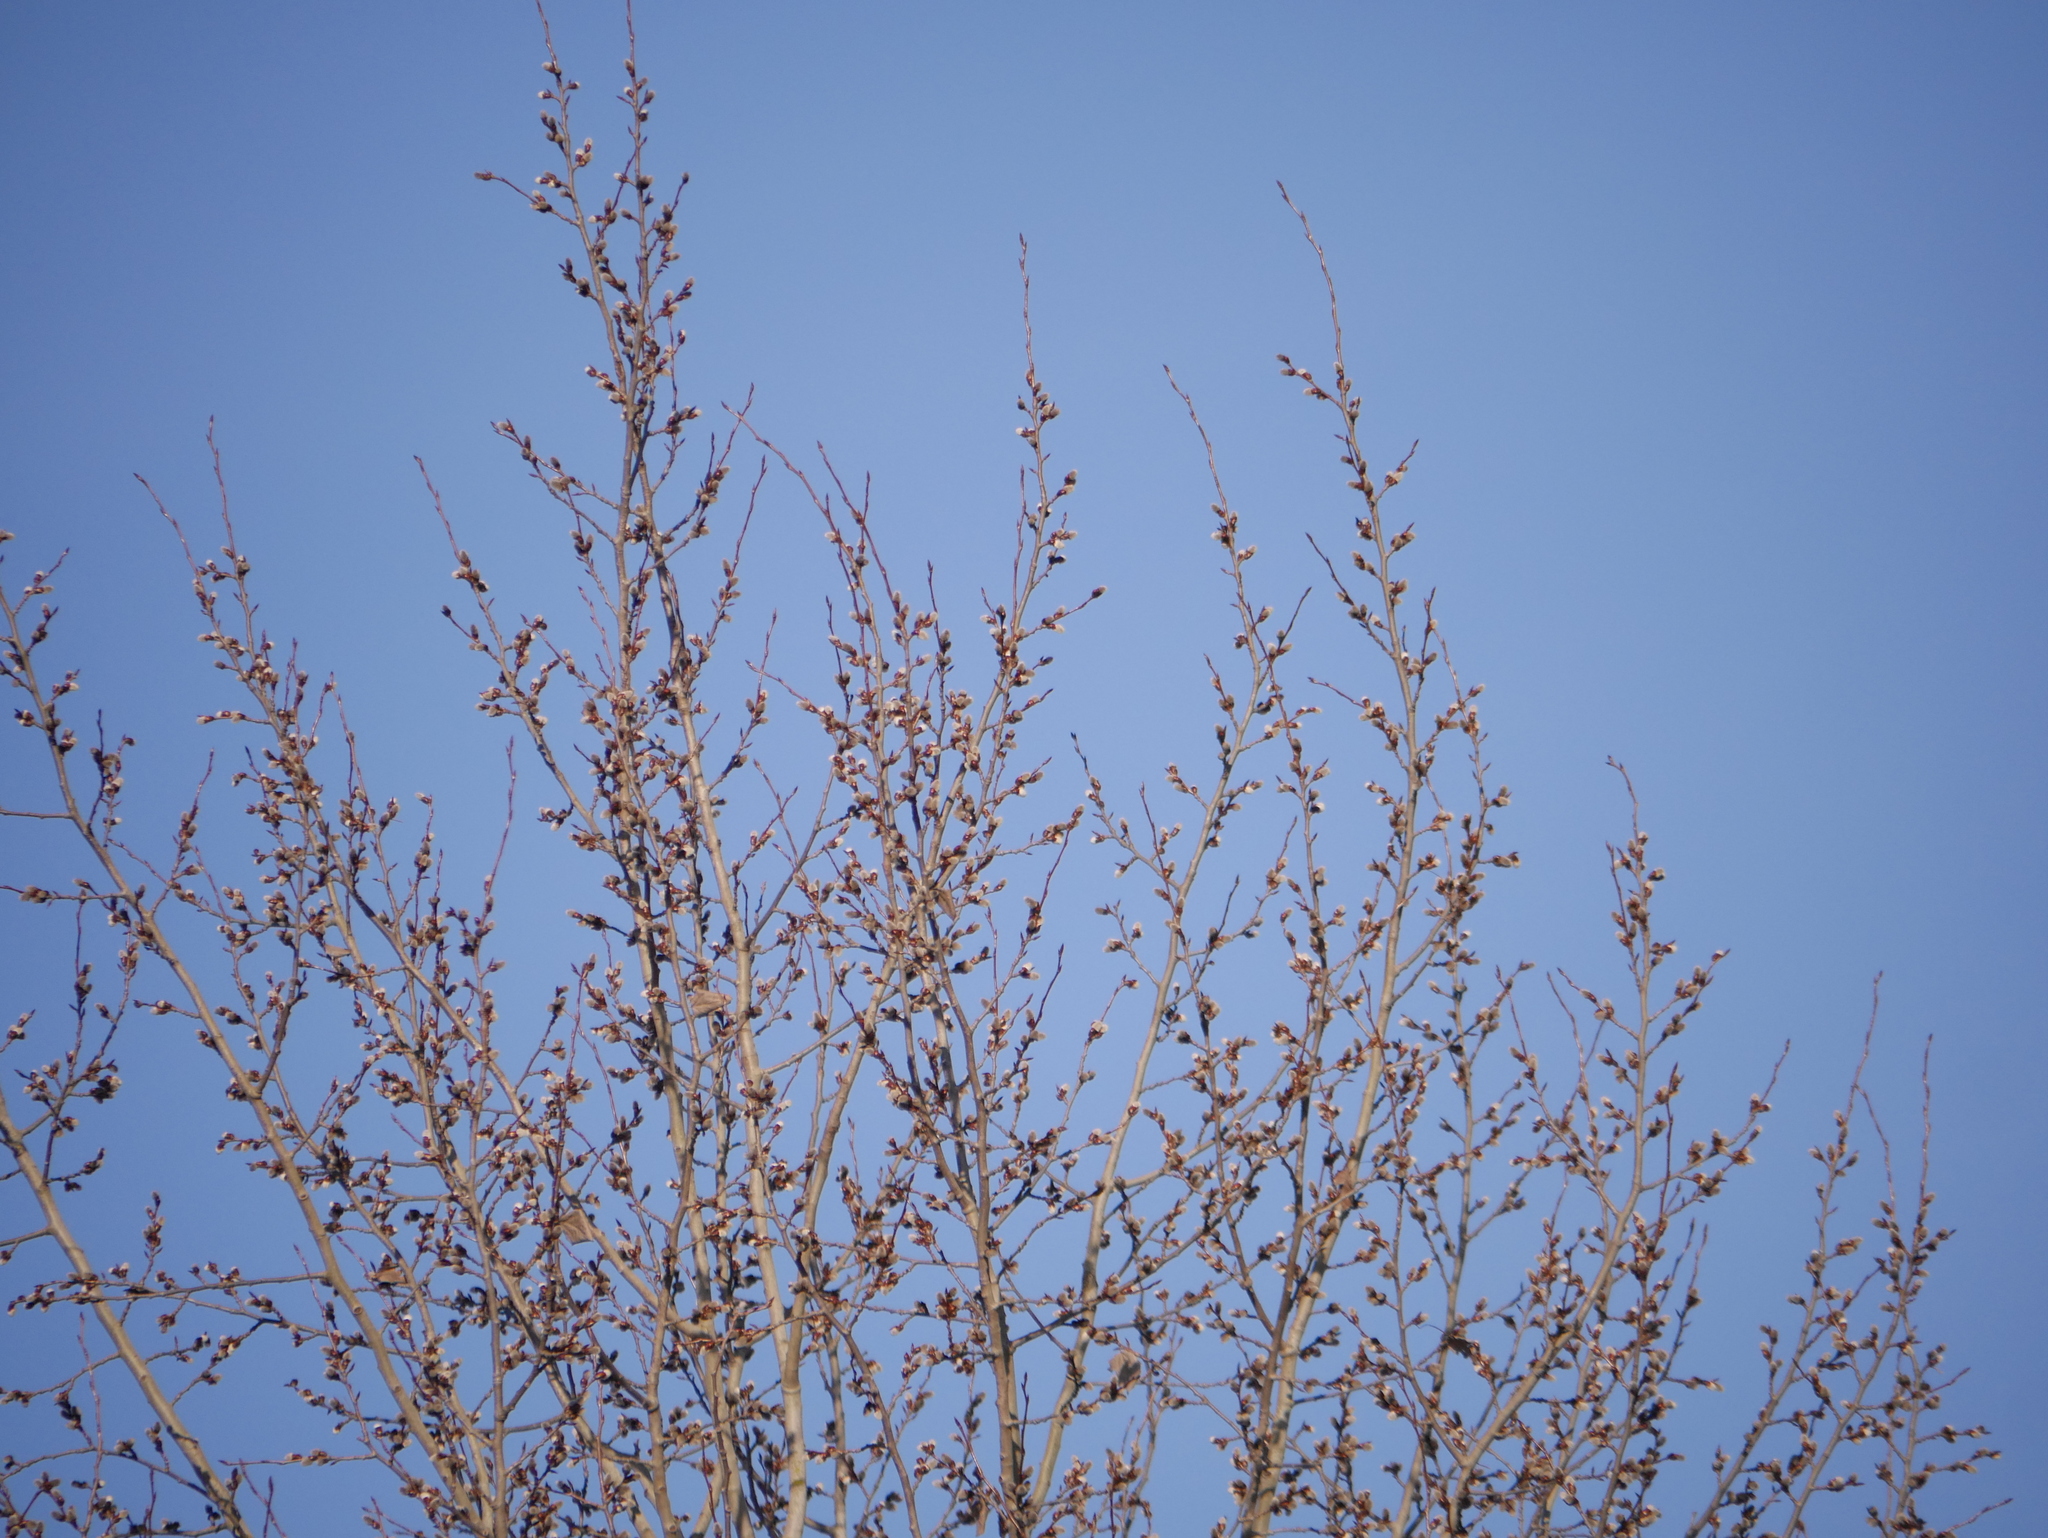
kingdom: Plantae
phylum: Tracheophyta
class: Magnoliopsida
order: Malpighiales
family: Salicaceae
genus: Populus
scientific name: Populus tremula
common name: European aspen
